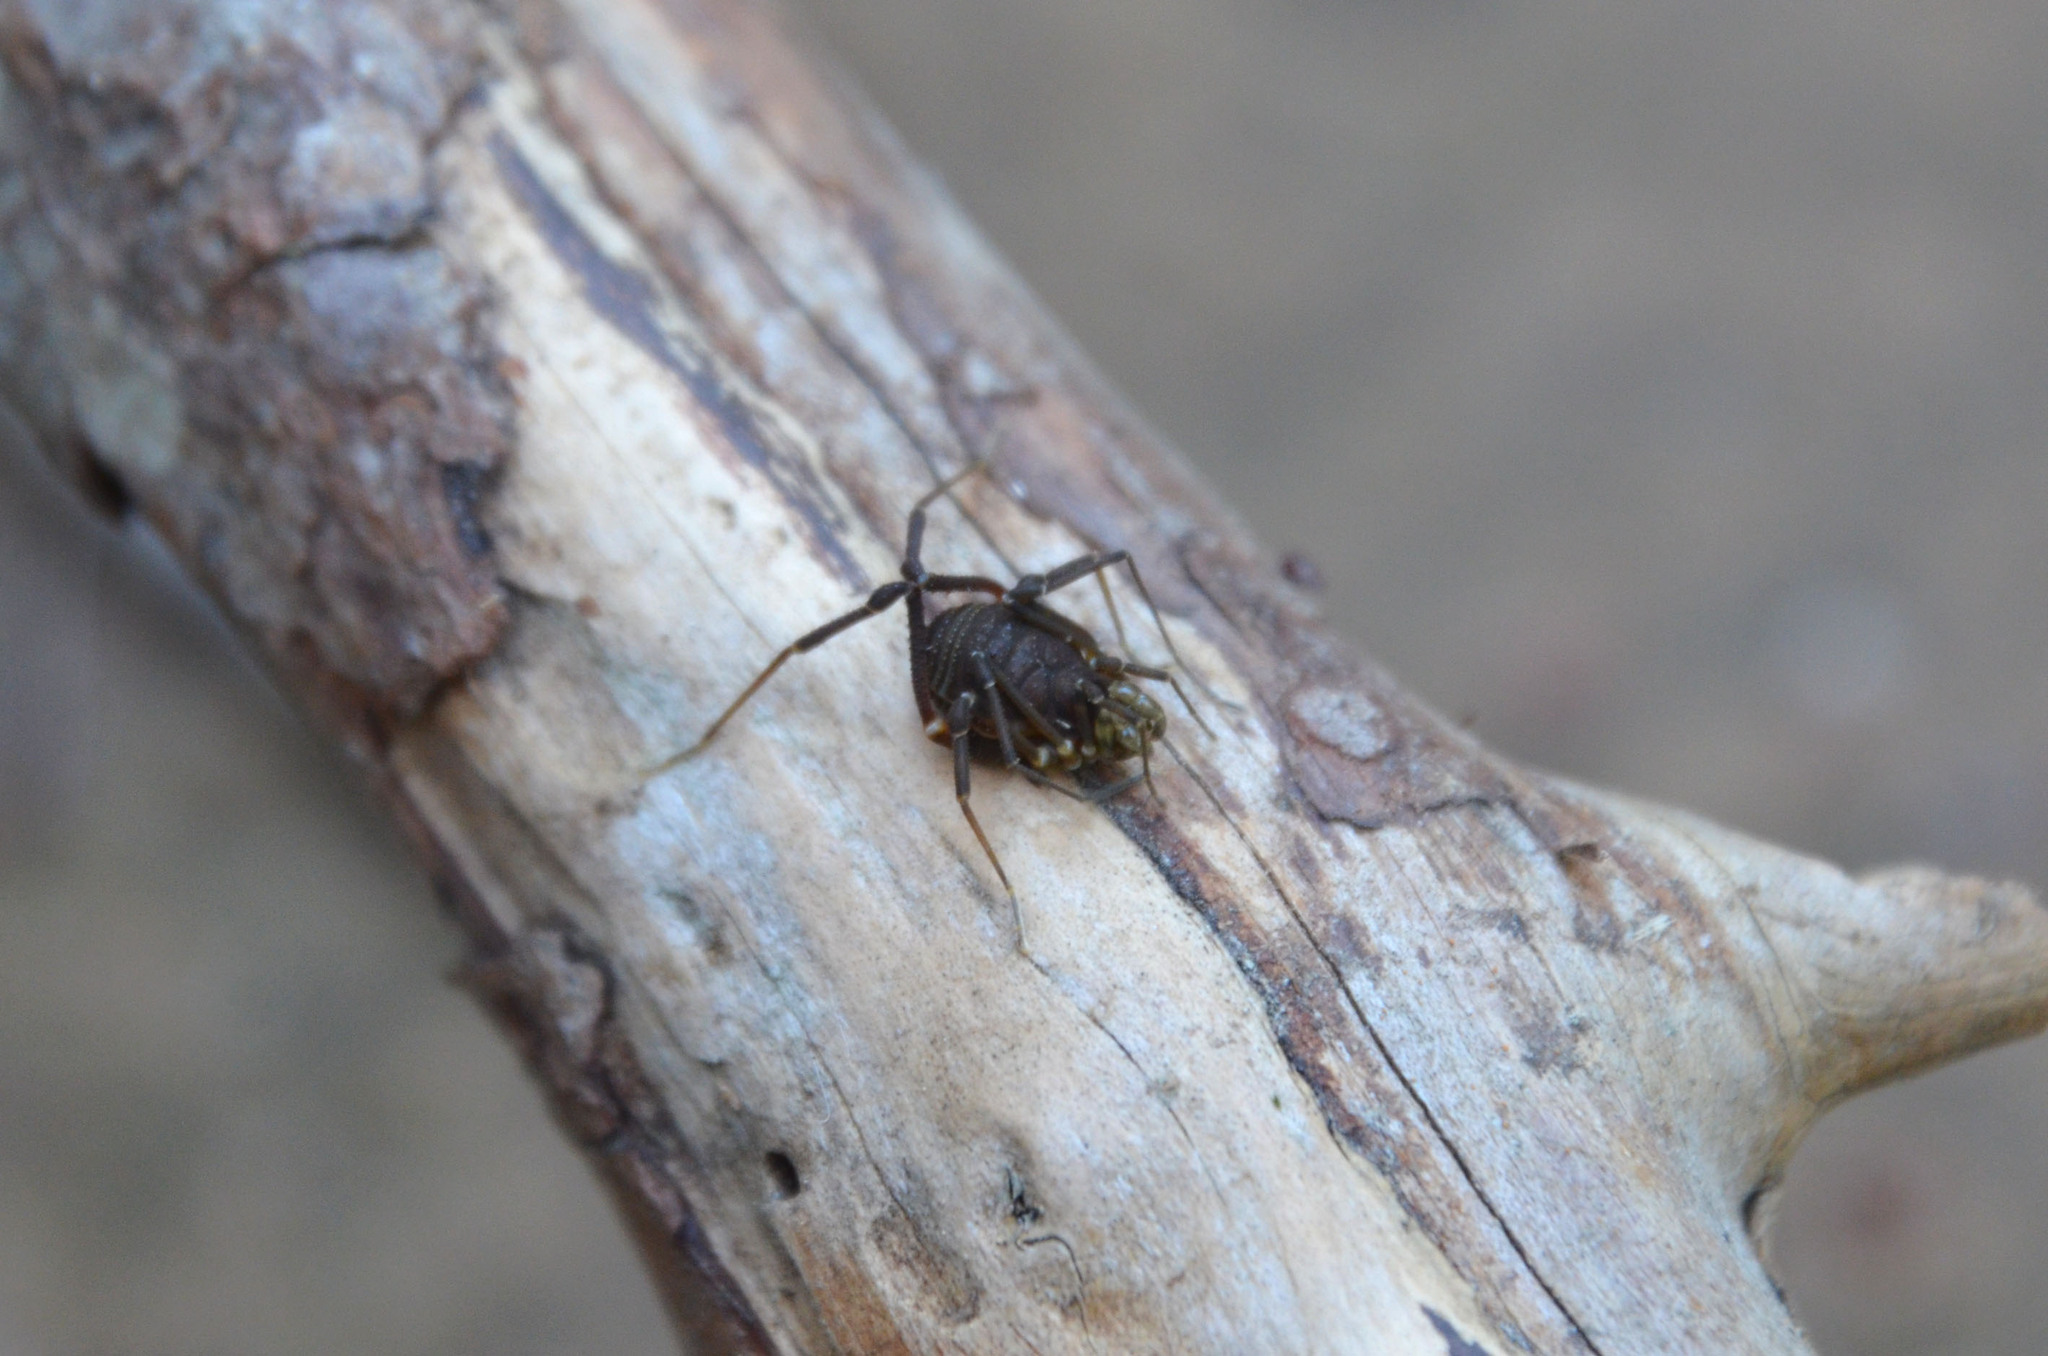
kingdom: Animalia
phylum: Arthropoda
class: Arachnida
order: Opiliones
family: Gonyleptidae
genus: Acanthopachylus
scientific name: Acanthopachylus robustus
